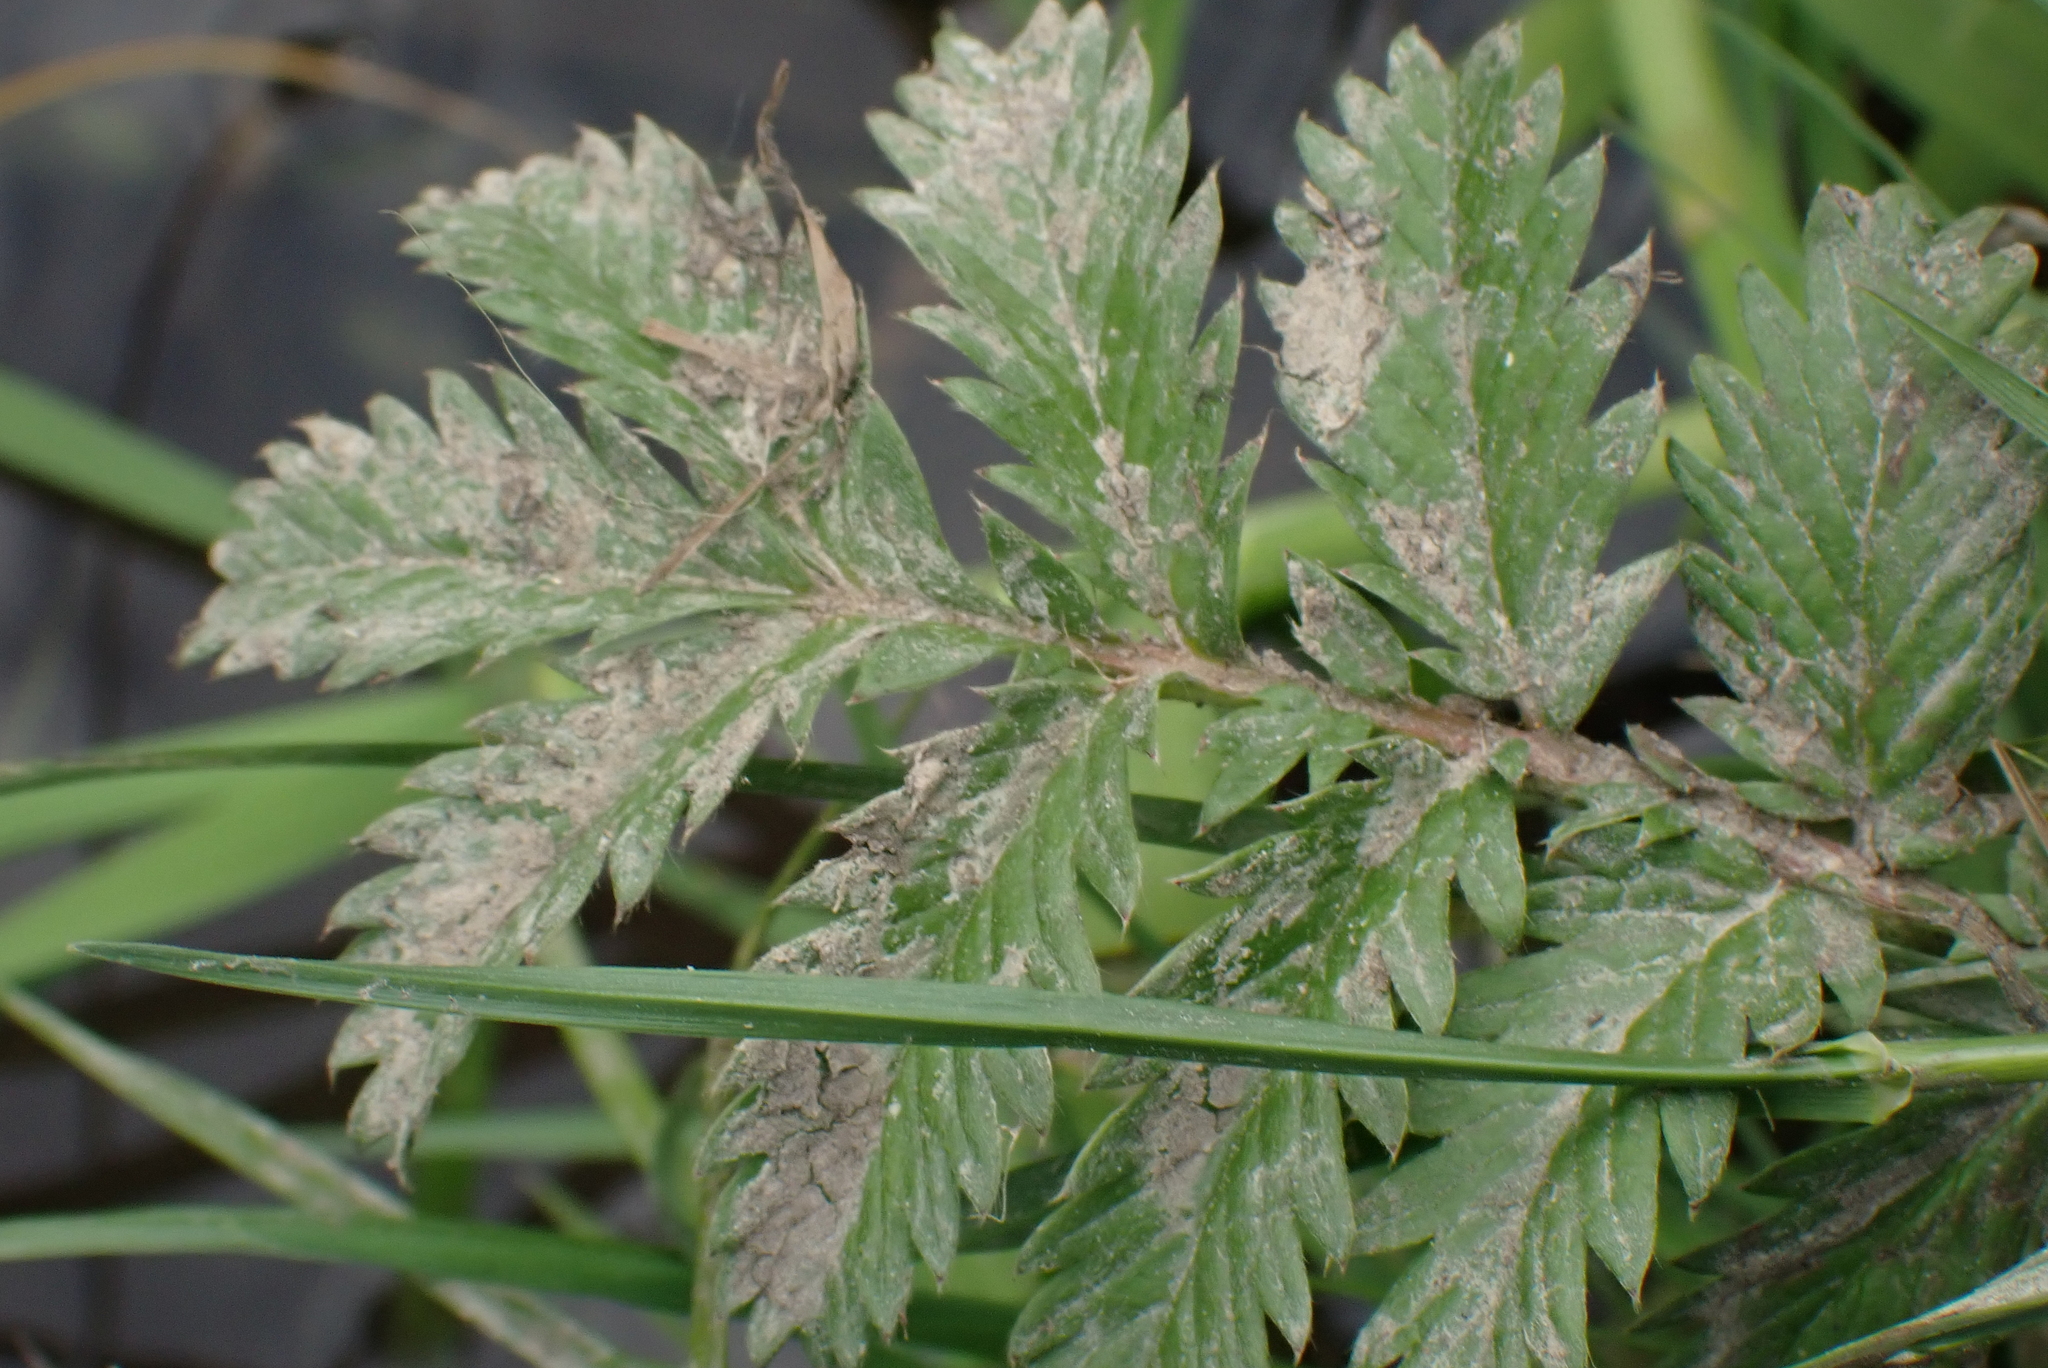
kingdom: Plantae
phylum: Tracheophyta
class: Magnoliopsida
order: Rosales
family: Rosaceae
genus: Argentina
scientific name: Argentina anserina
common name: Common silverweed
